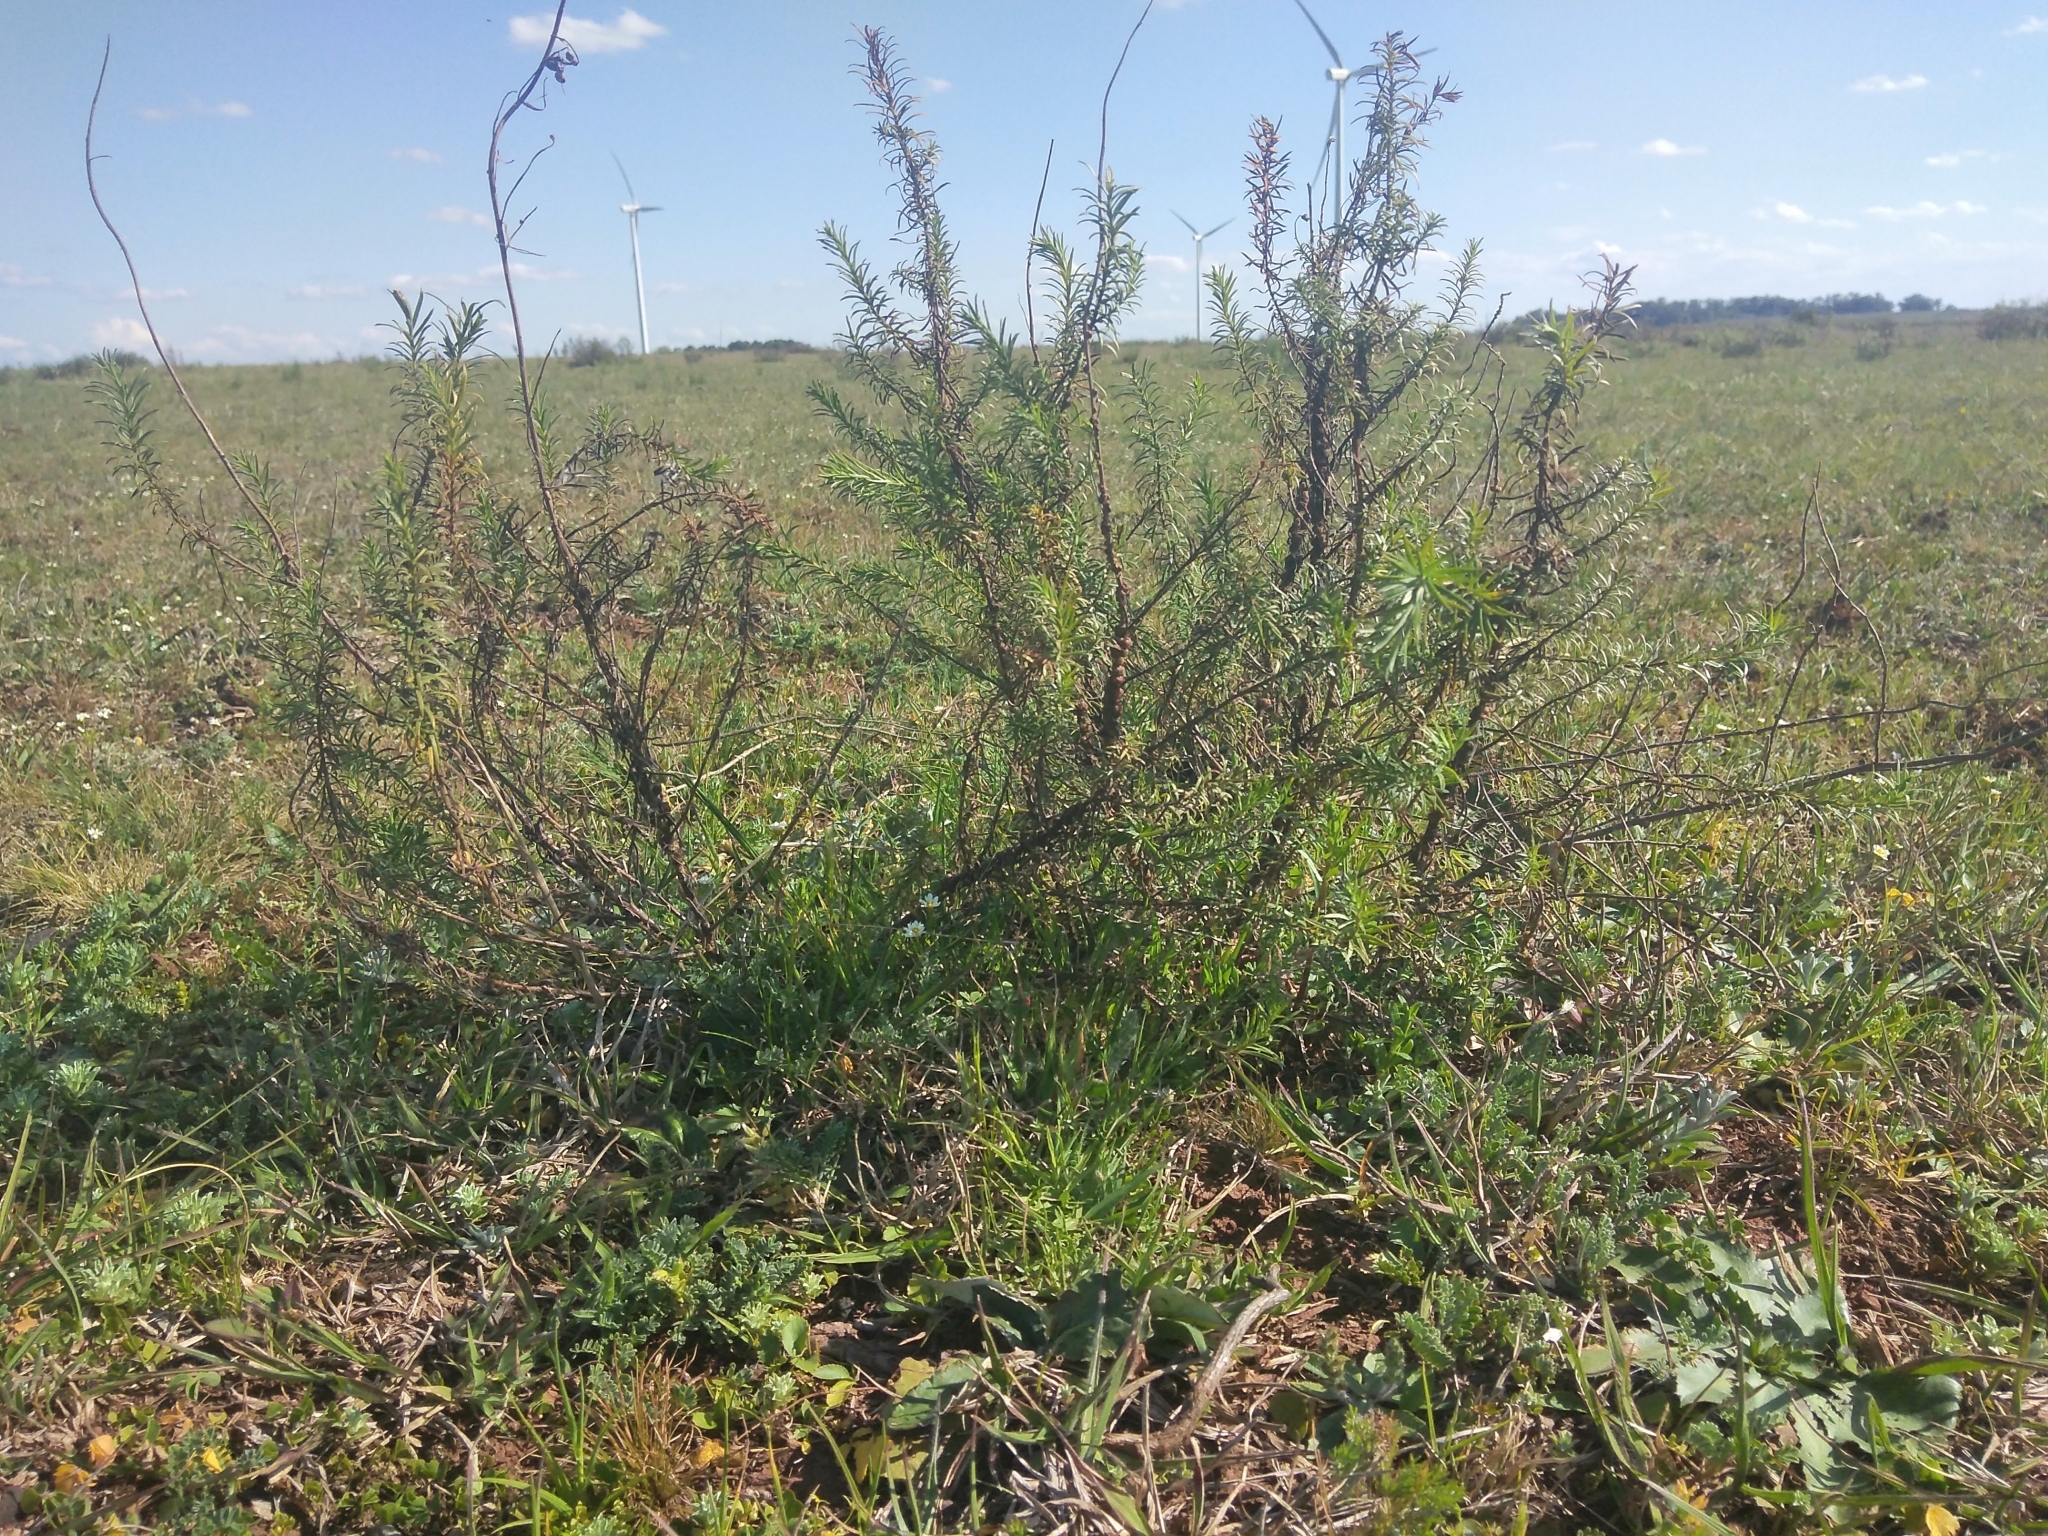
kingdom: Plantae
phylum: Tracheophyta
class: Magnoliopsida
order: Asterales
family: Asteraceae
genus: Baccharis
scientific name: Baccharis coridifolia
